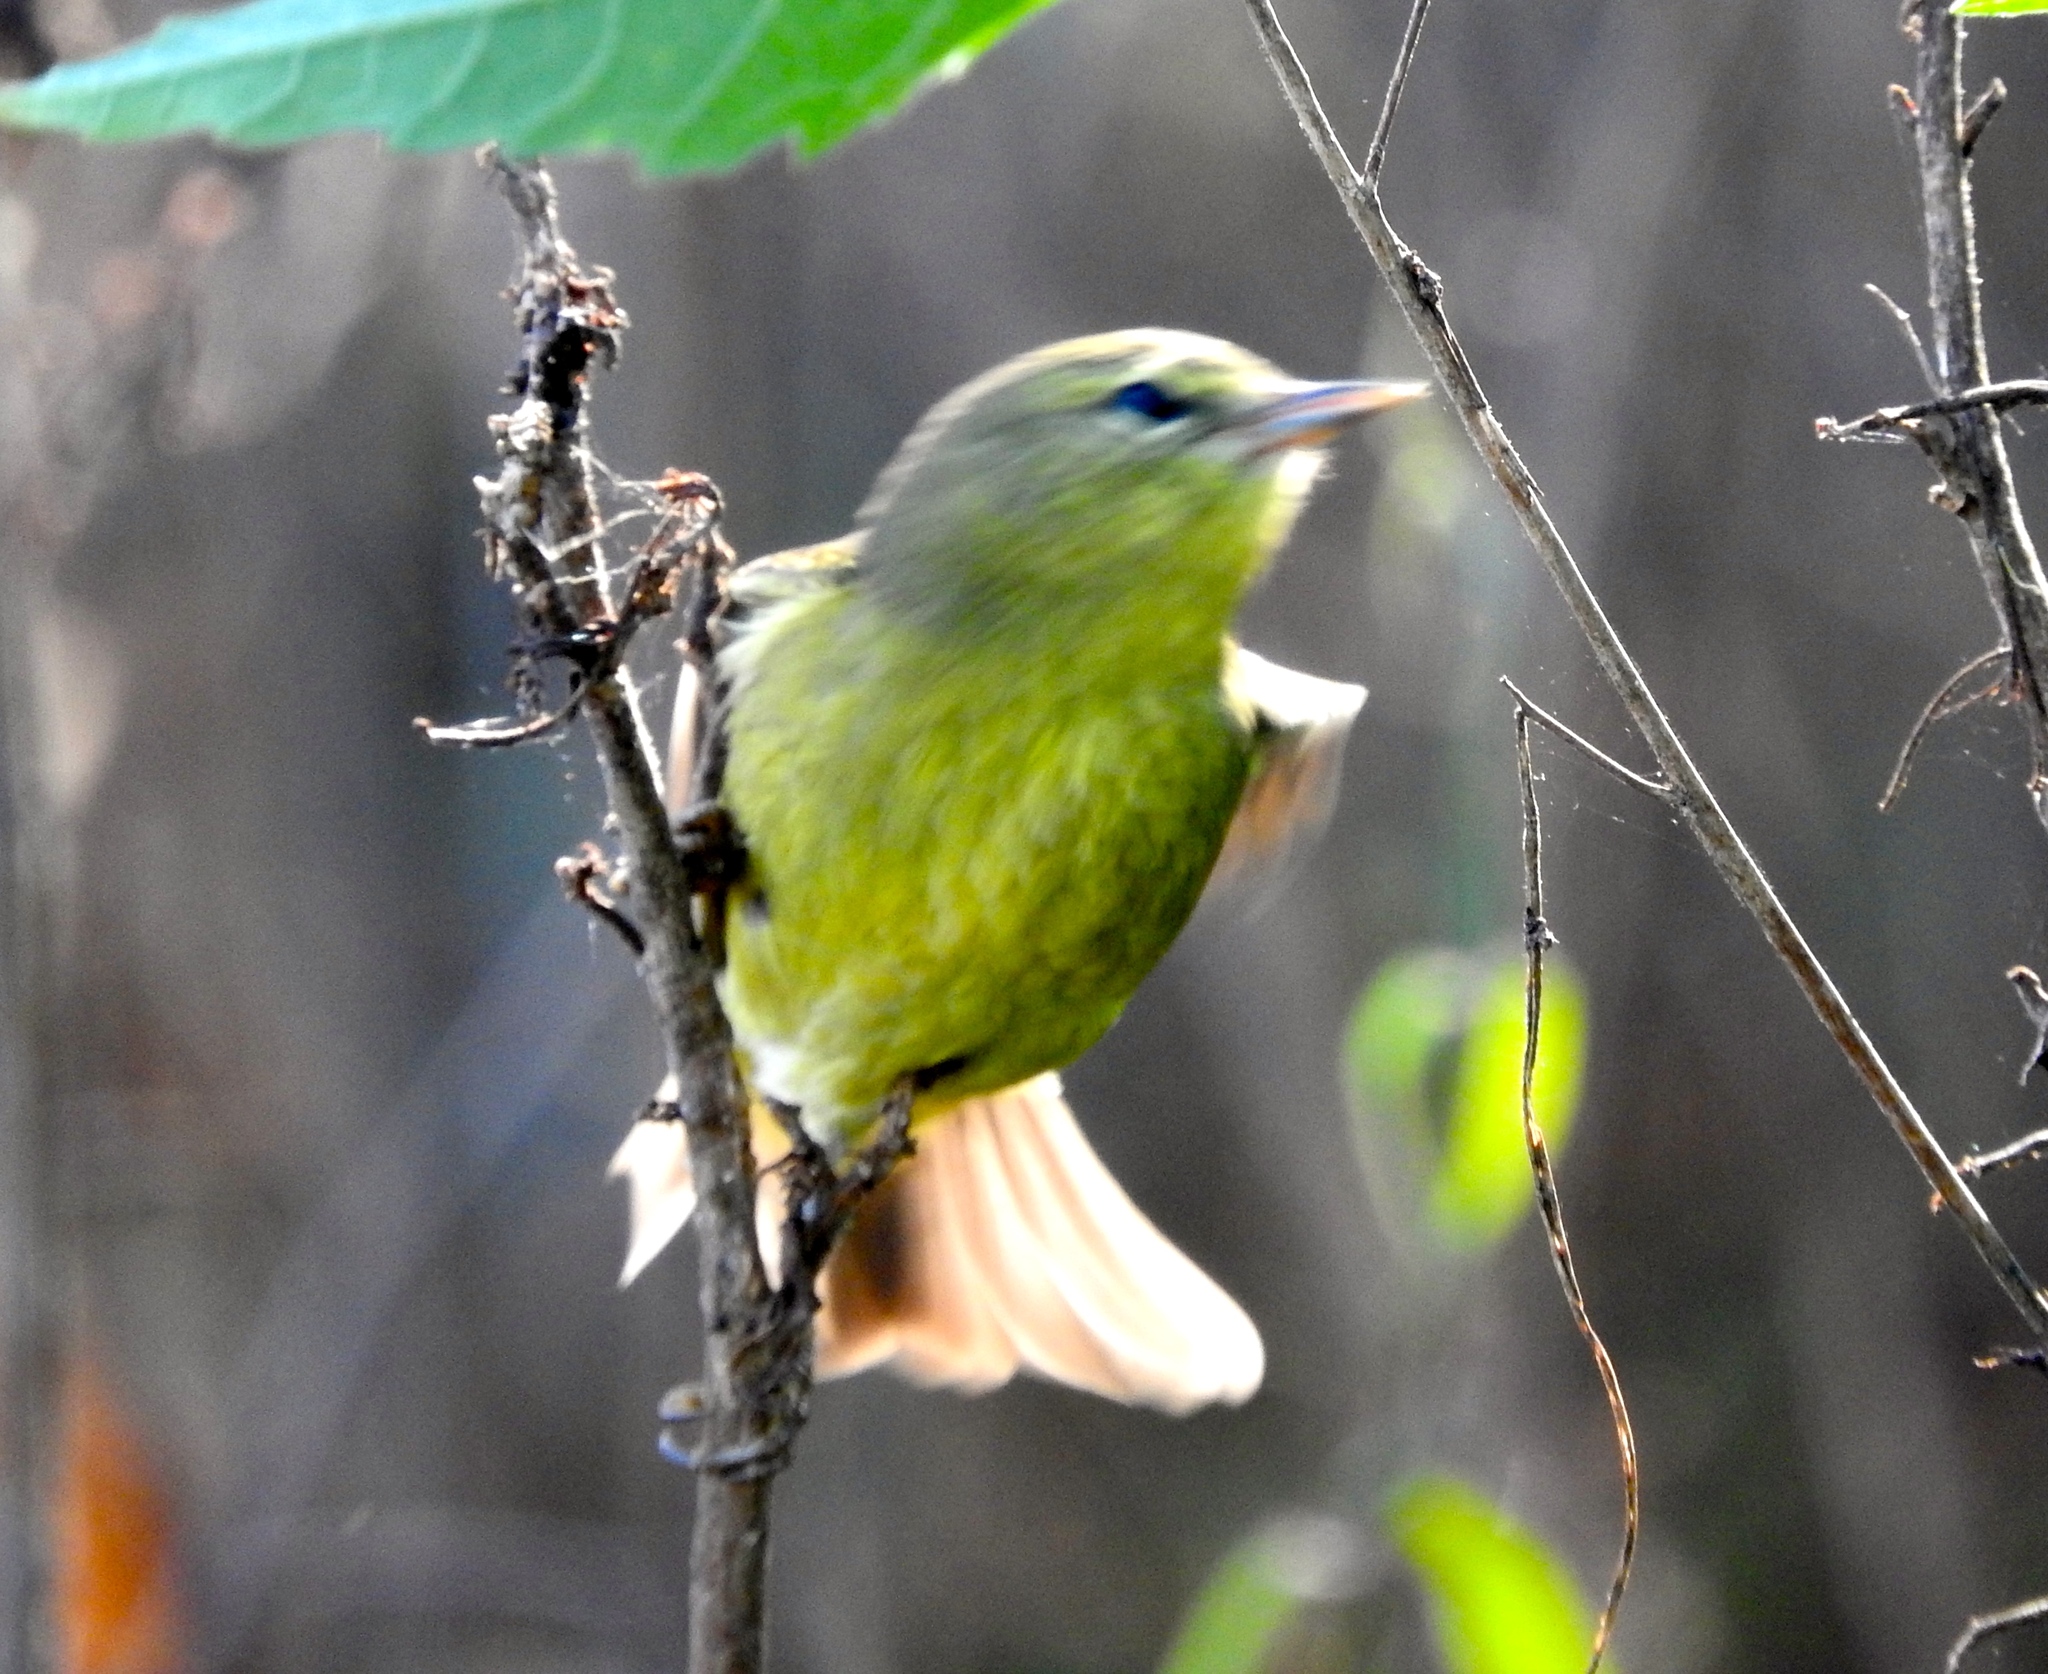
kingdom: Animalia
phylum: Chordata
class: Aves
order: Passeriformes
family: Parulidae
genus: Leiothlypis
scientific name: Leiothlypis celata
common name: Orange-crowned warbler
